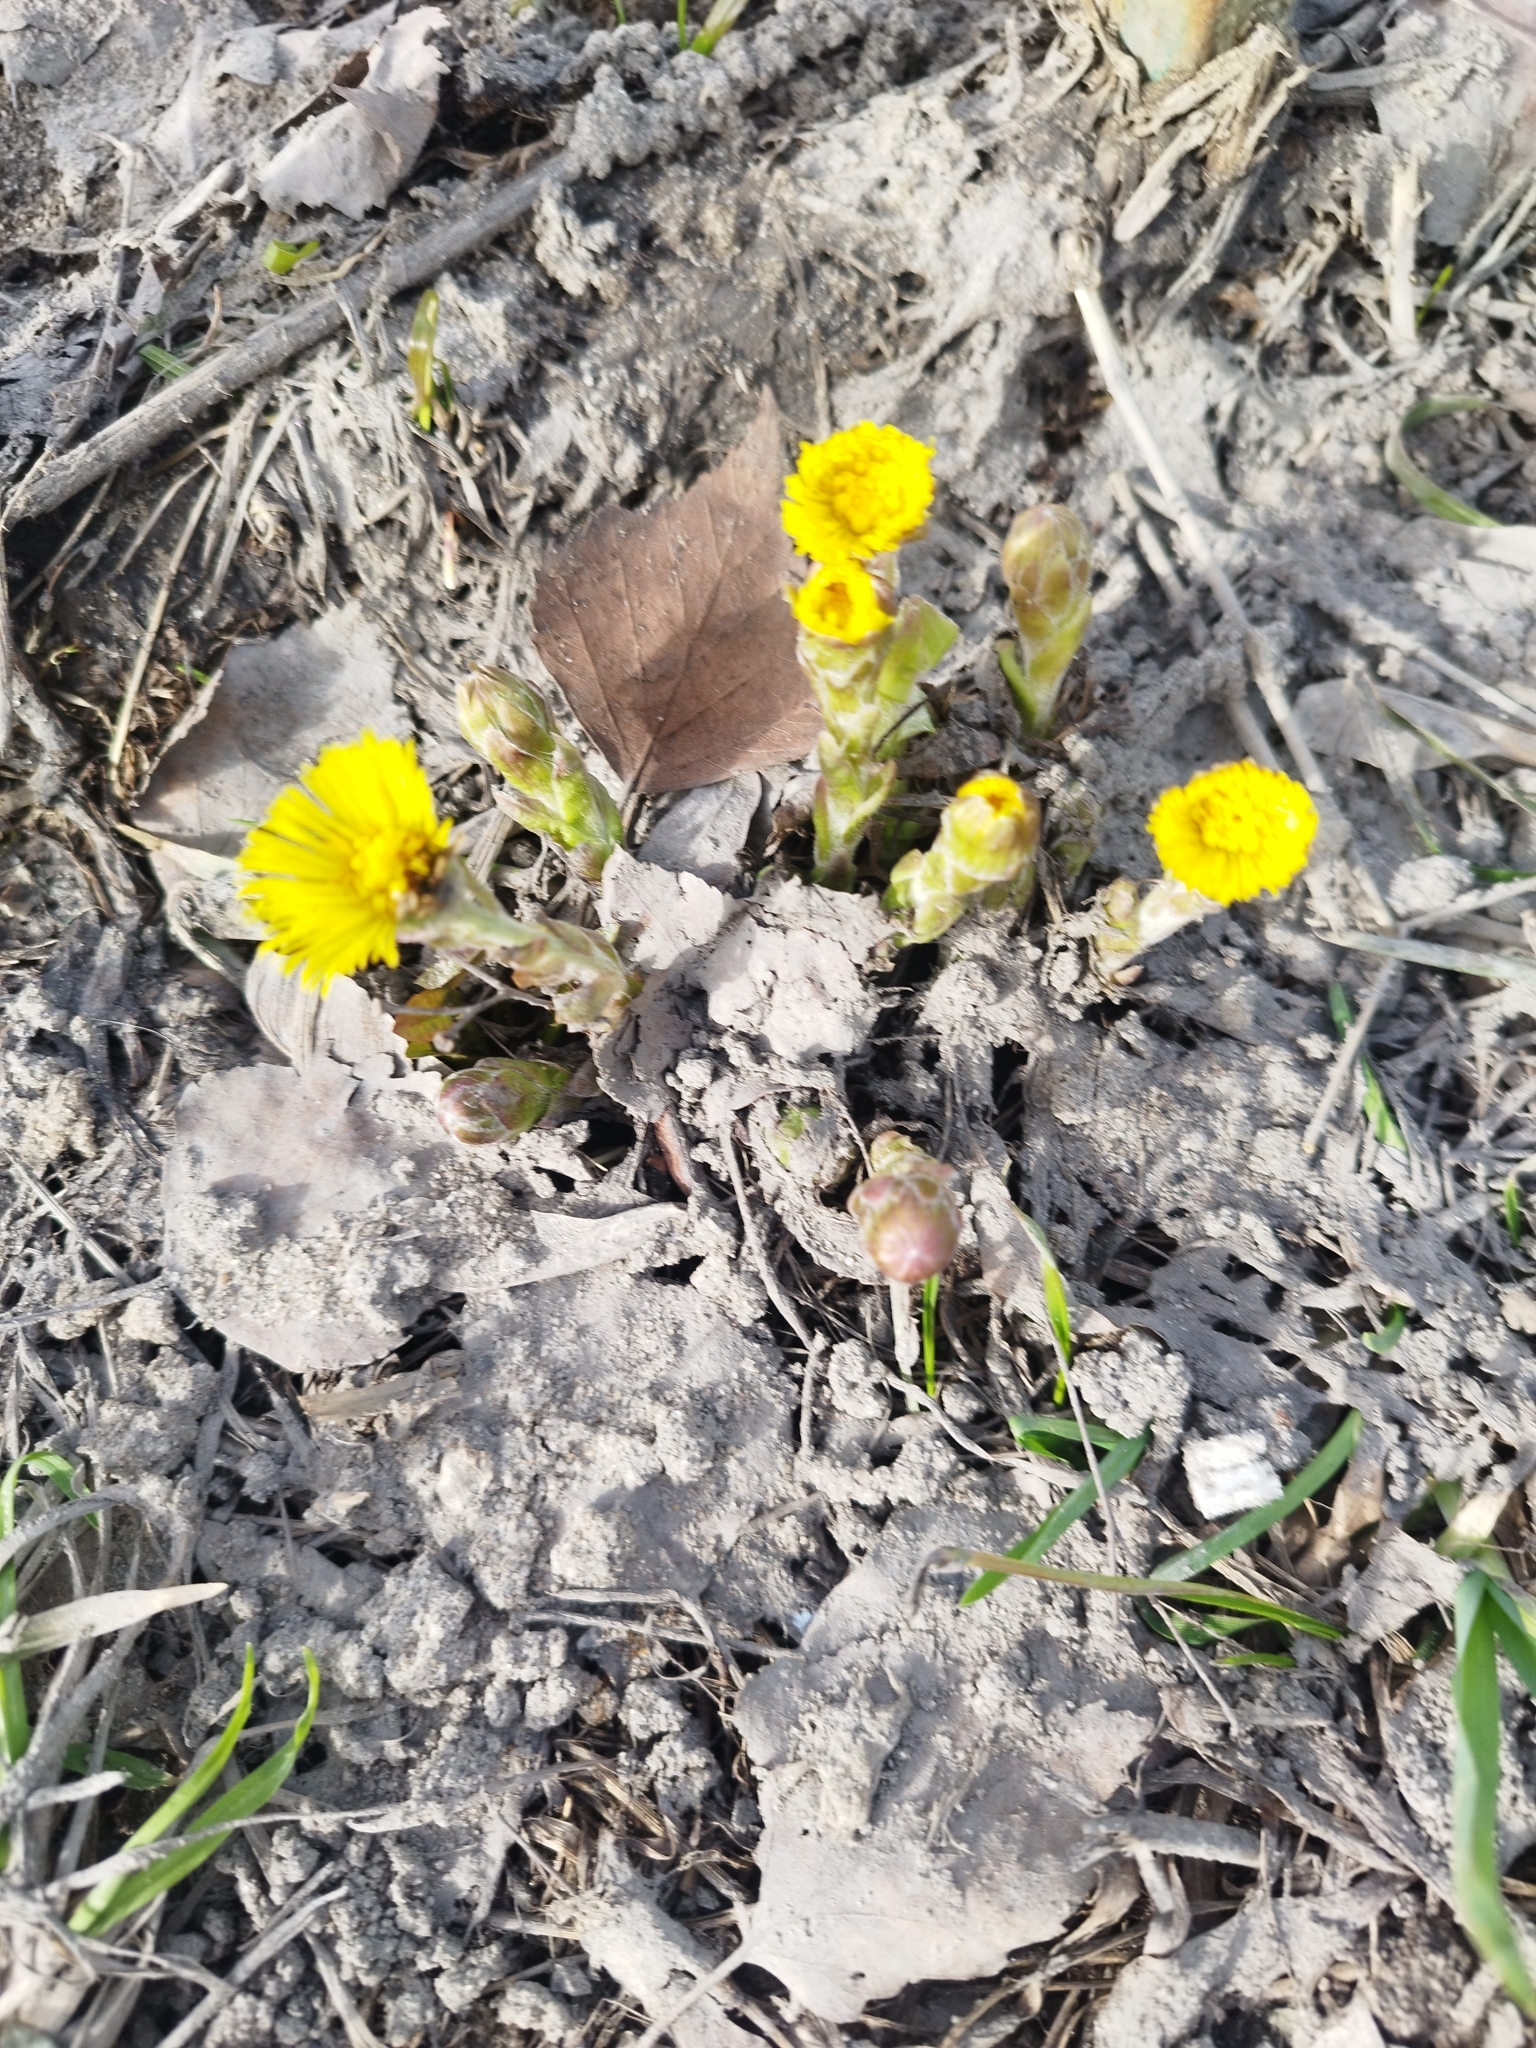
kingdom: Plantae
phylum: Tracheophyta
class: Magnoliopsida
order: Asterales
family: Asteraceae
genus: Tussilago
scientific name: Tussilago farfara
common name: Coltsfoot
